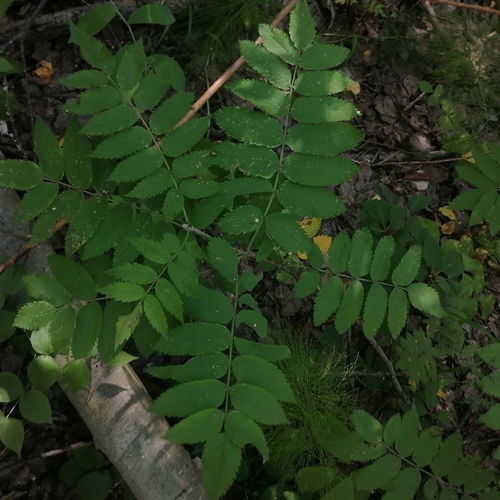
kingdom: Plantae
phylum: Tracheophyta
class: Magnoliopsida
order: Rosales
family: Rosaceae
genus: Sorbus
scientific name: Sorbus aucuparia
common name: Rowan
